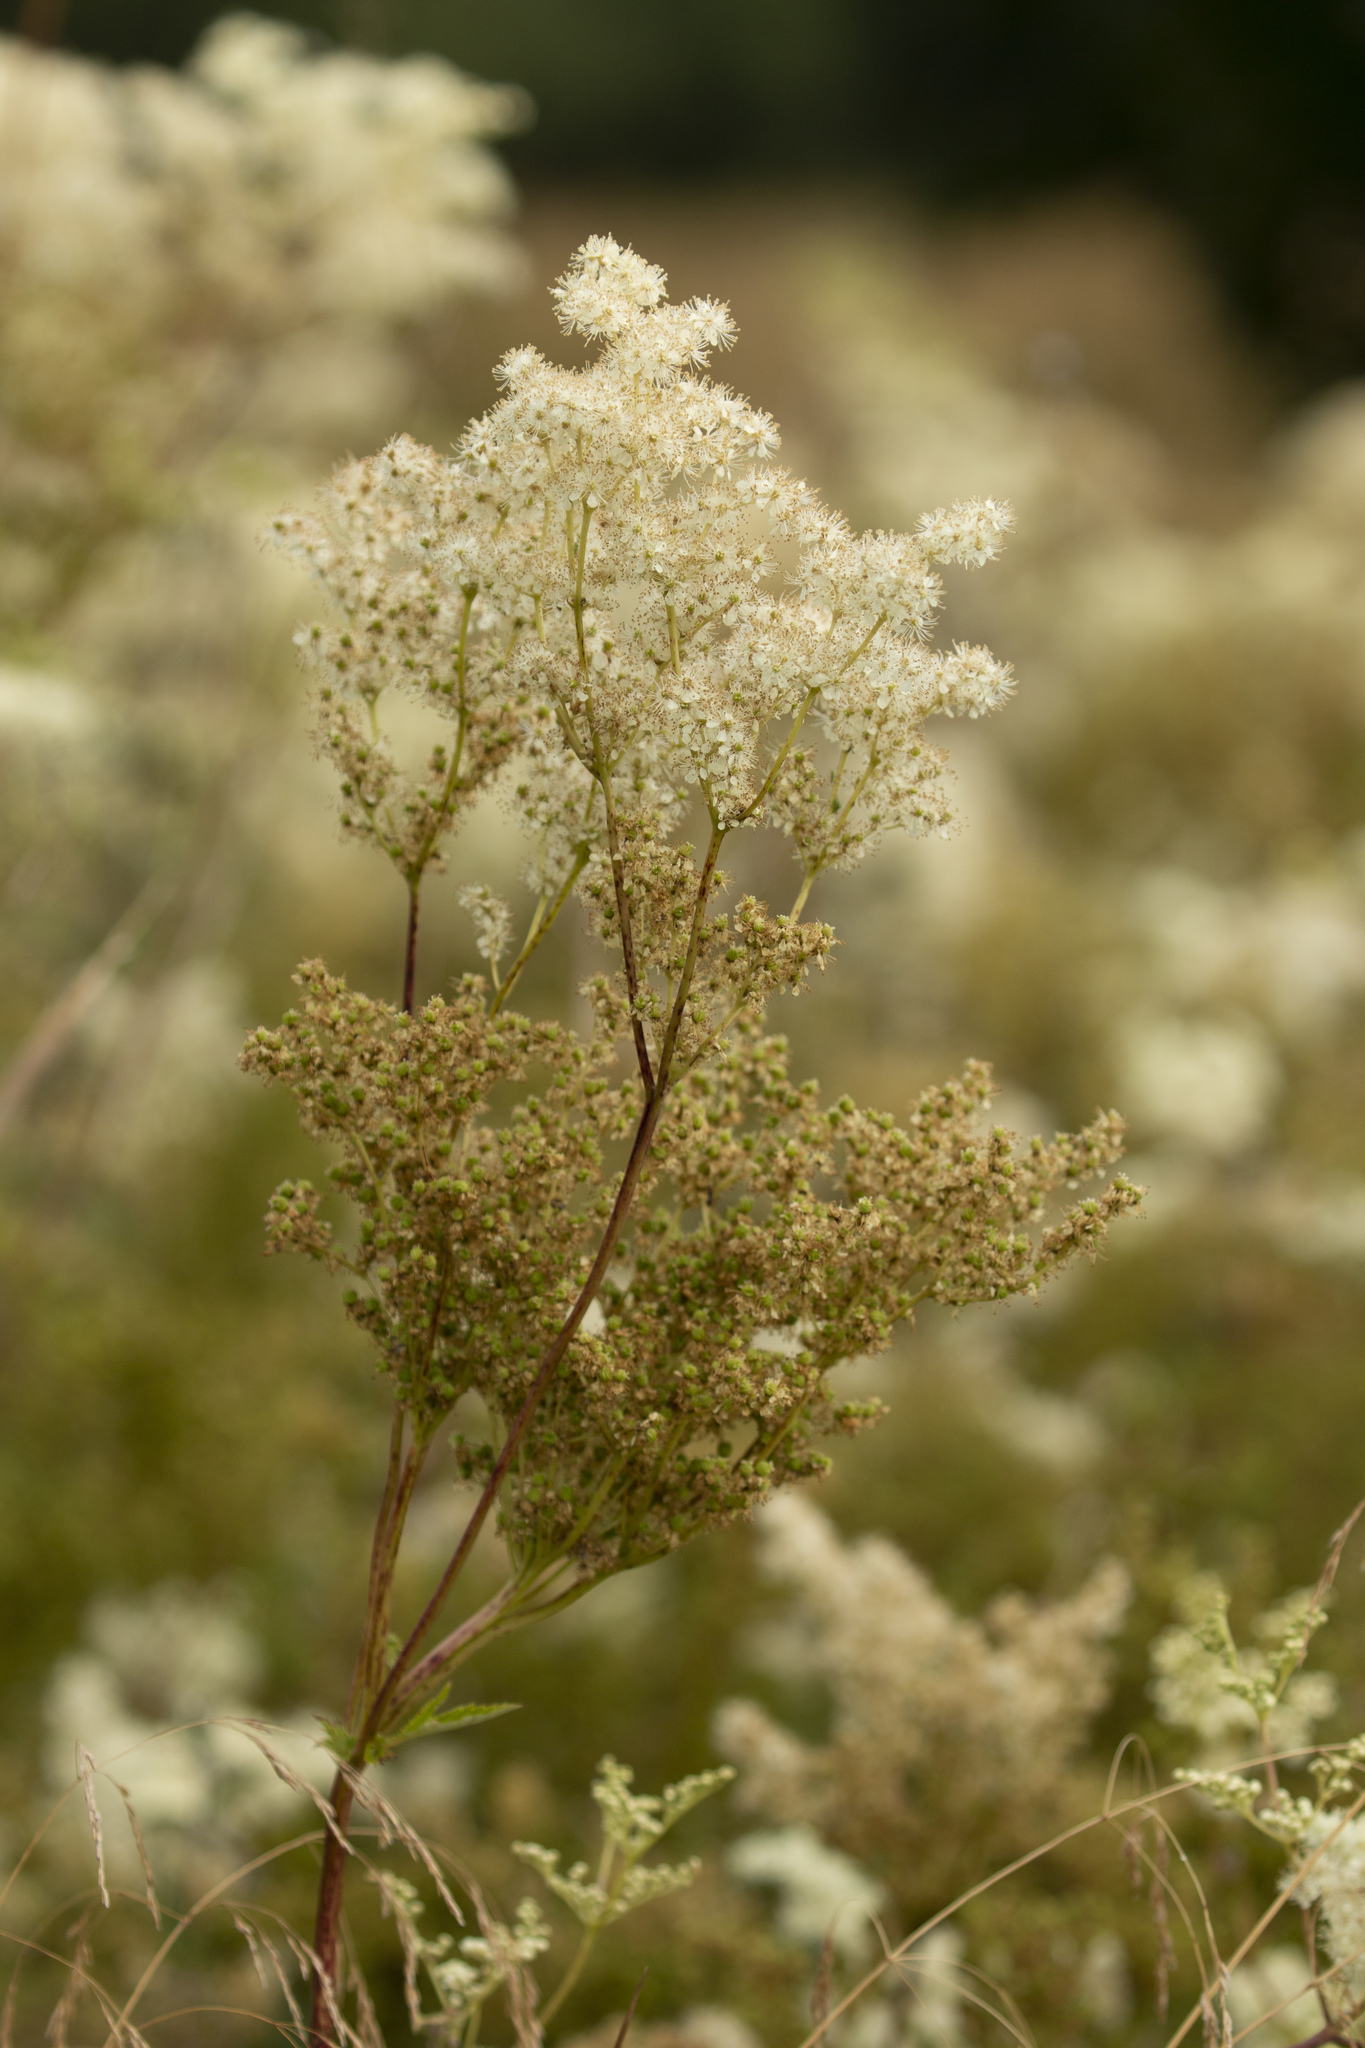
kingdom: Plantae
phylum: Tracheophyta
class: Magnoliopsida
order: Rosales
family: Rosaceae
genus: Filipendula
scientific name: Filipendula ulmaria
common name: Meadowsweet
